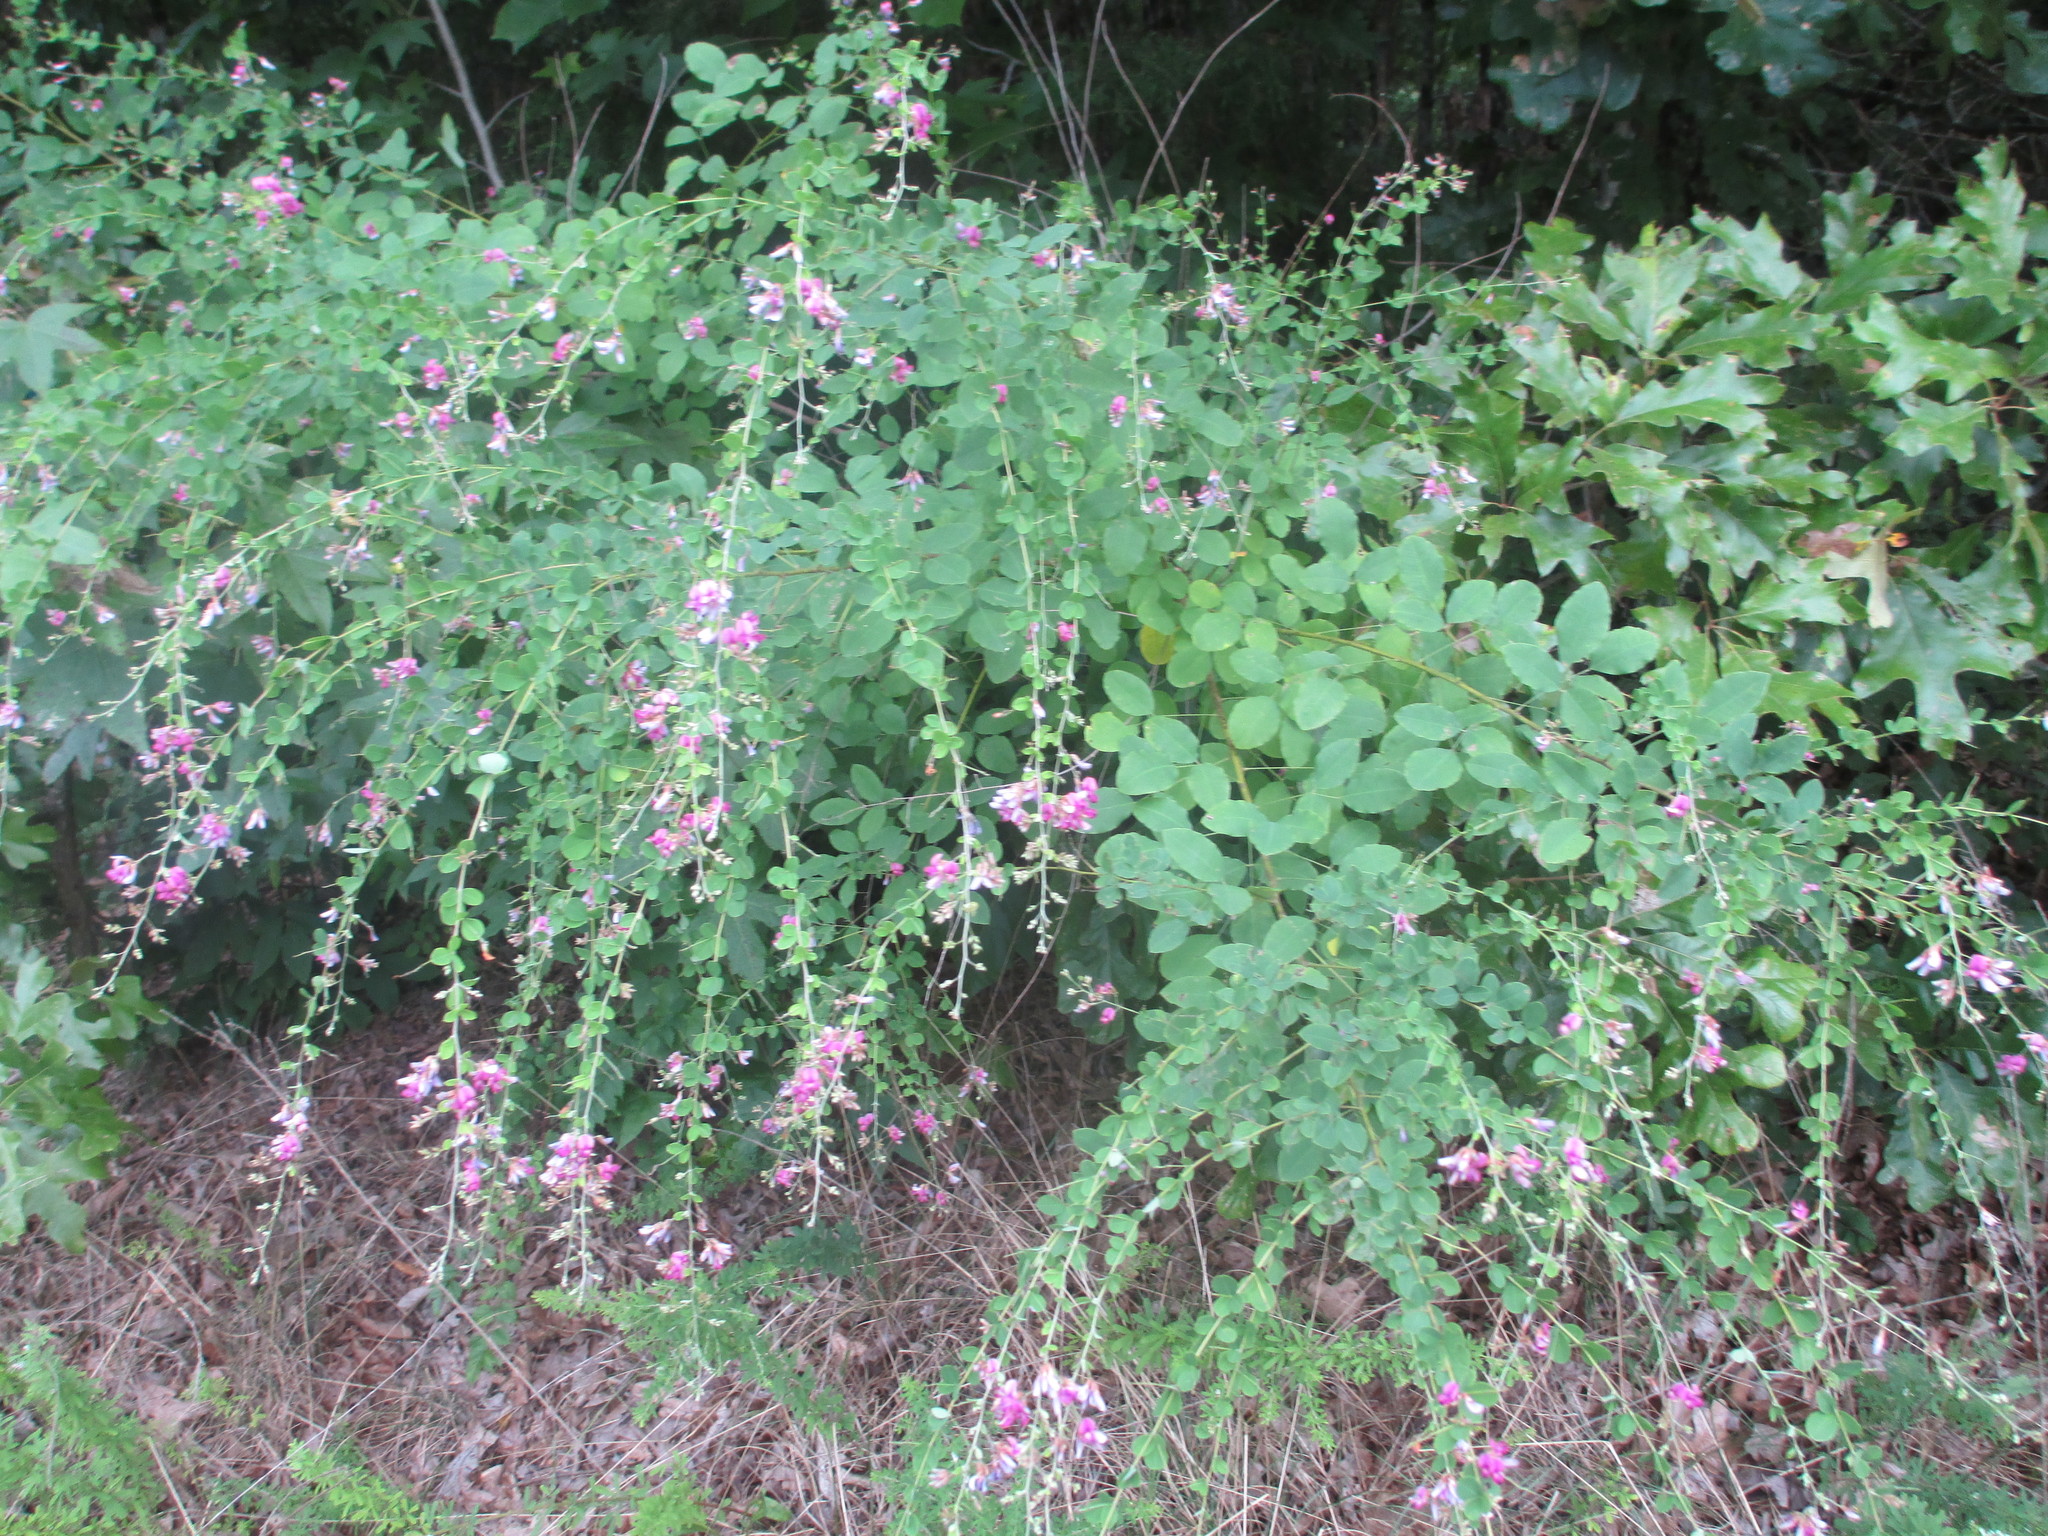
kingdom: Plantae
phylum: Tracheophyta
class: Magnoliopsida
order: Fabales
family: Fabaceae
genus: Lespedeza
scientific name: Lespedeza bicolor
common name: Shrub lespedeza
